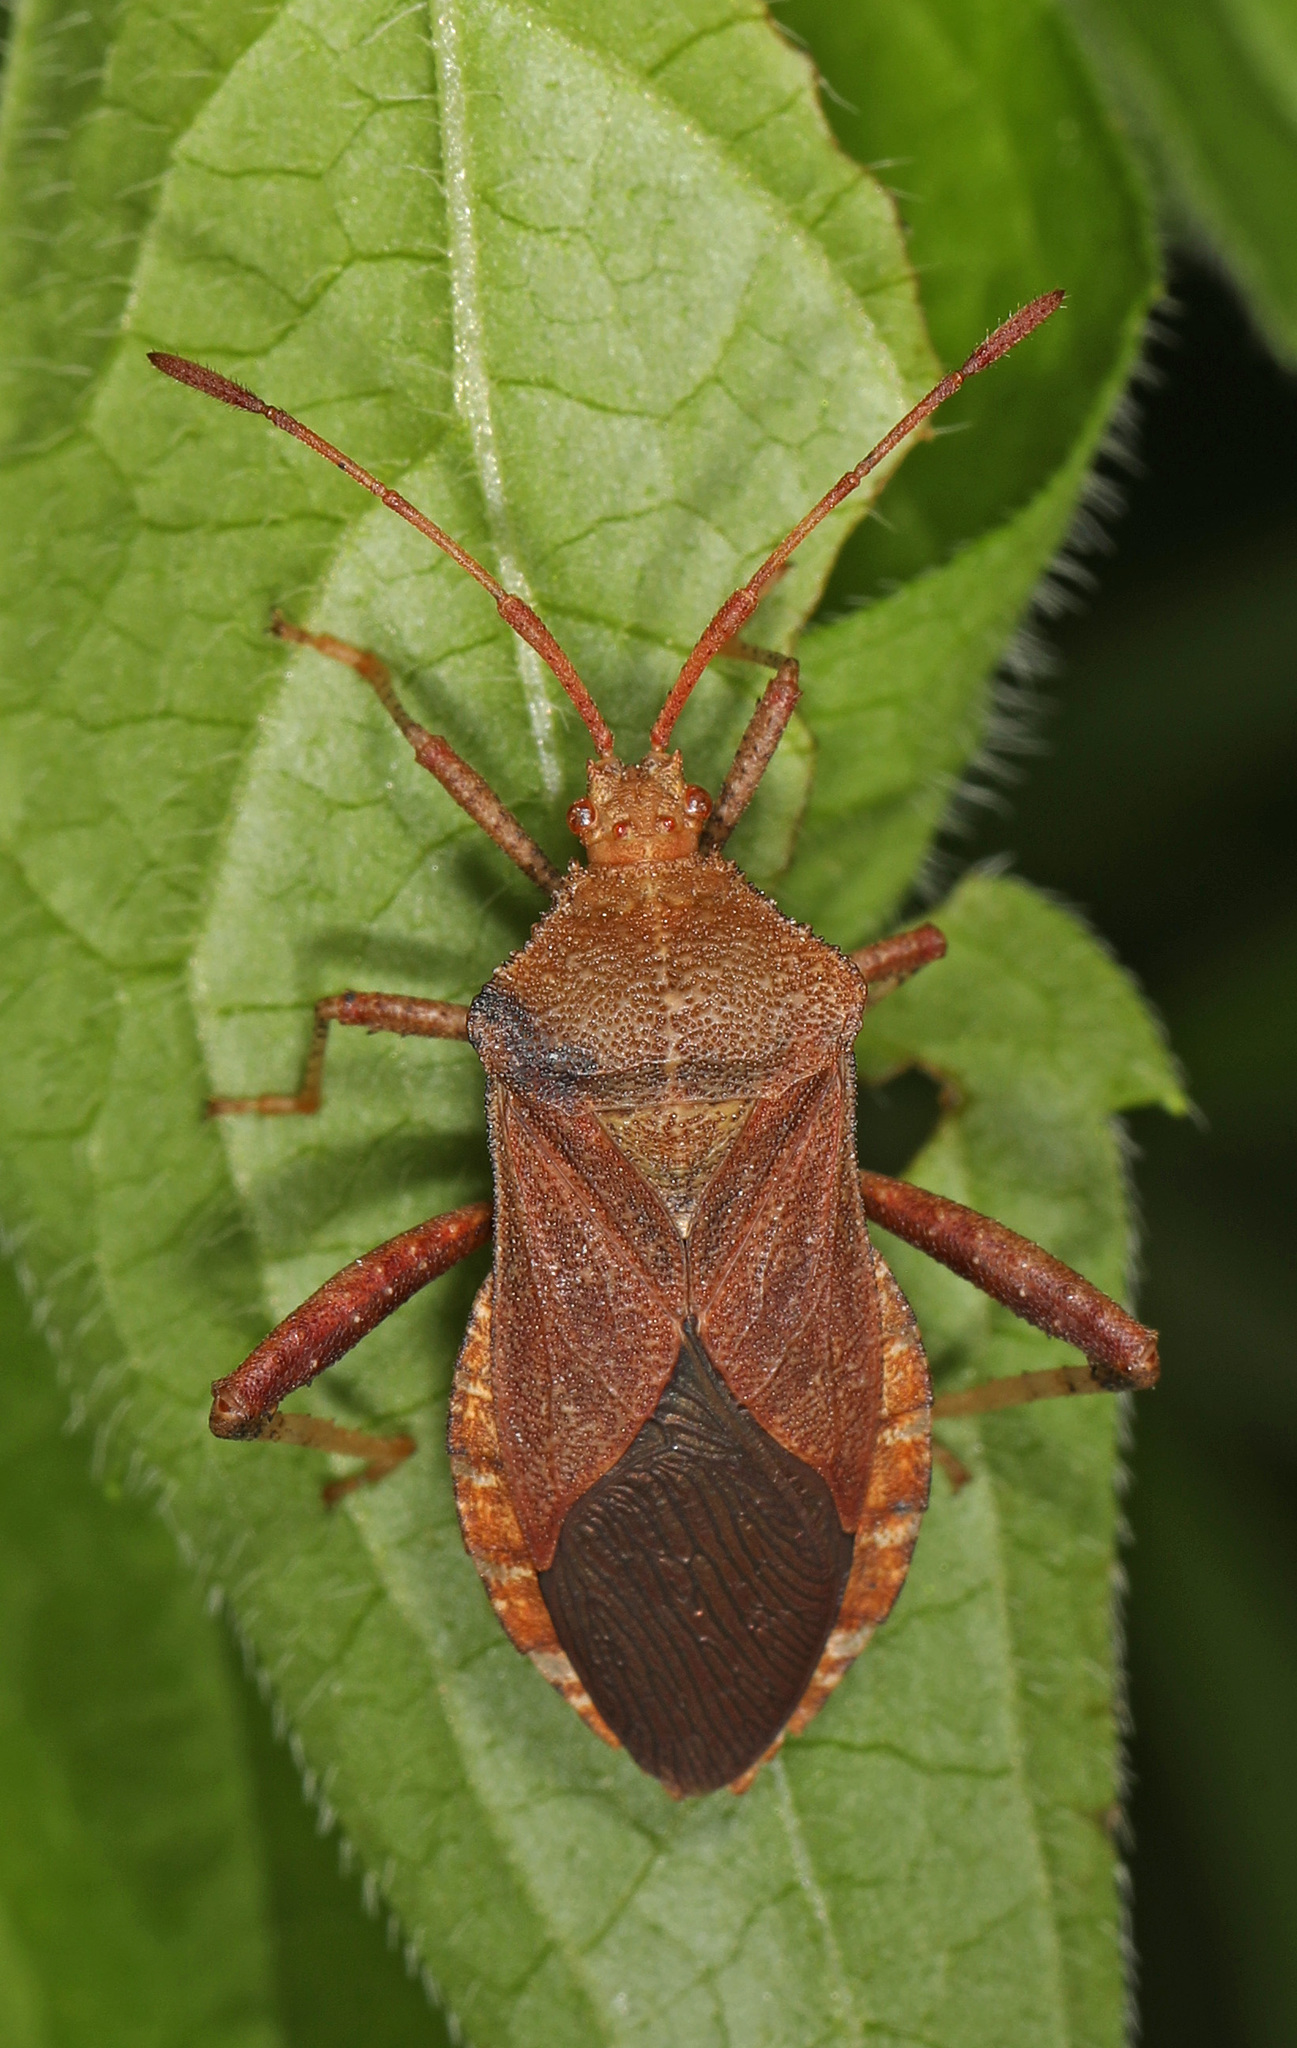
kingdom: Animalia
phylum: Arthropoda
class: Insecta
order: Hemiptera
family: Coreidae
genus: Euthochtha
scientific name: Euthochtha galeator
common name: Helmeted squash bug
